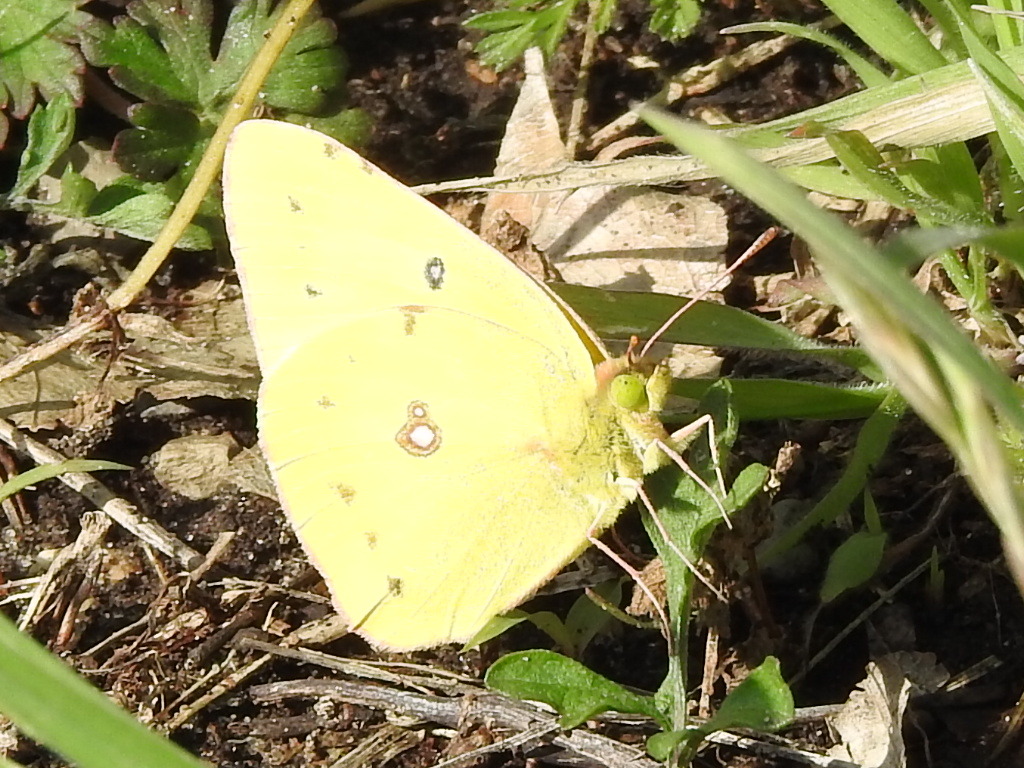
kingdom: Animalia
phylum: Arthropoda
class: Insecta
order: Lepidoptera
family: Pieridae
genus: Colias
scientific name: Colias eurytheme
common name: Alfalfa butterfly
